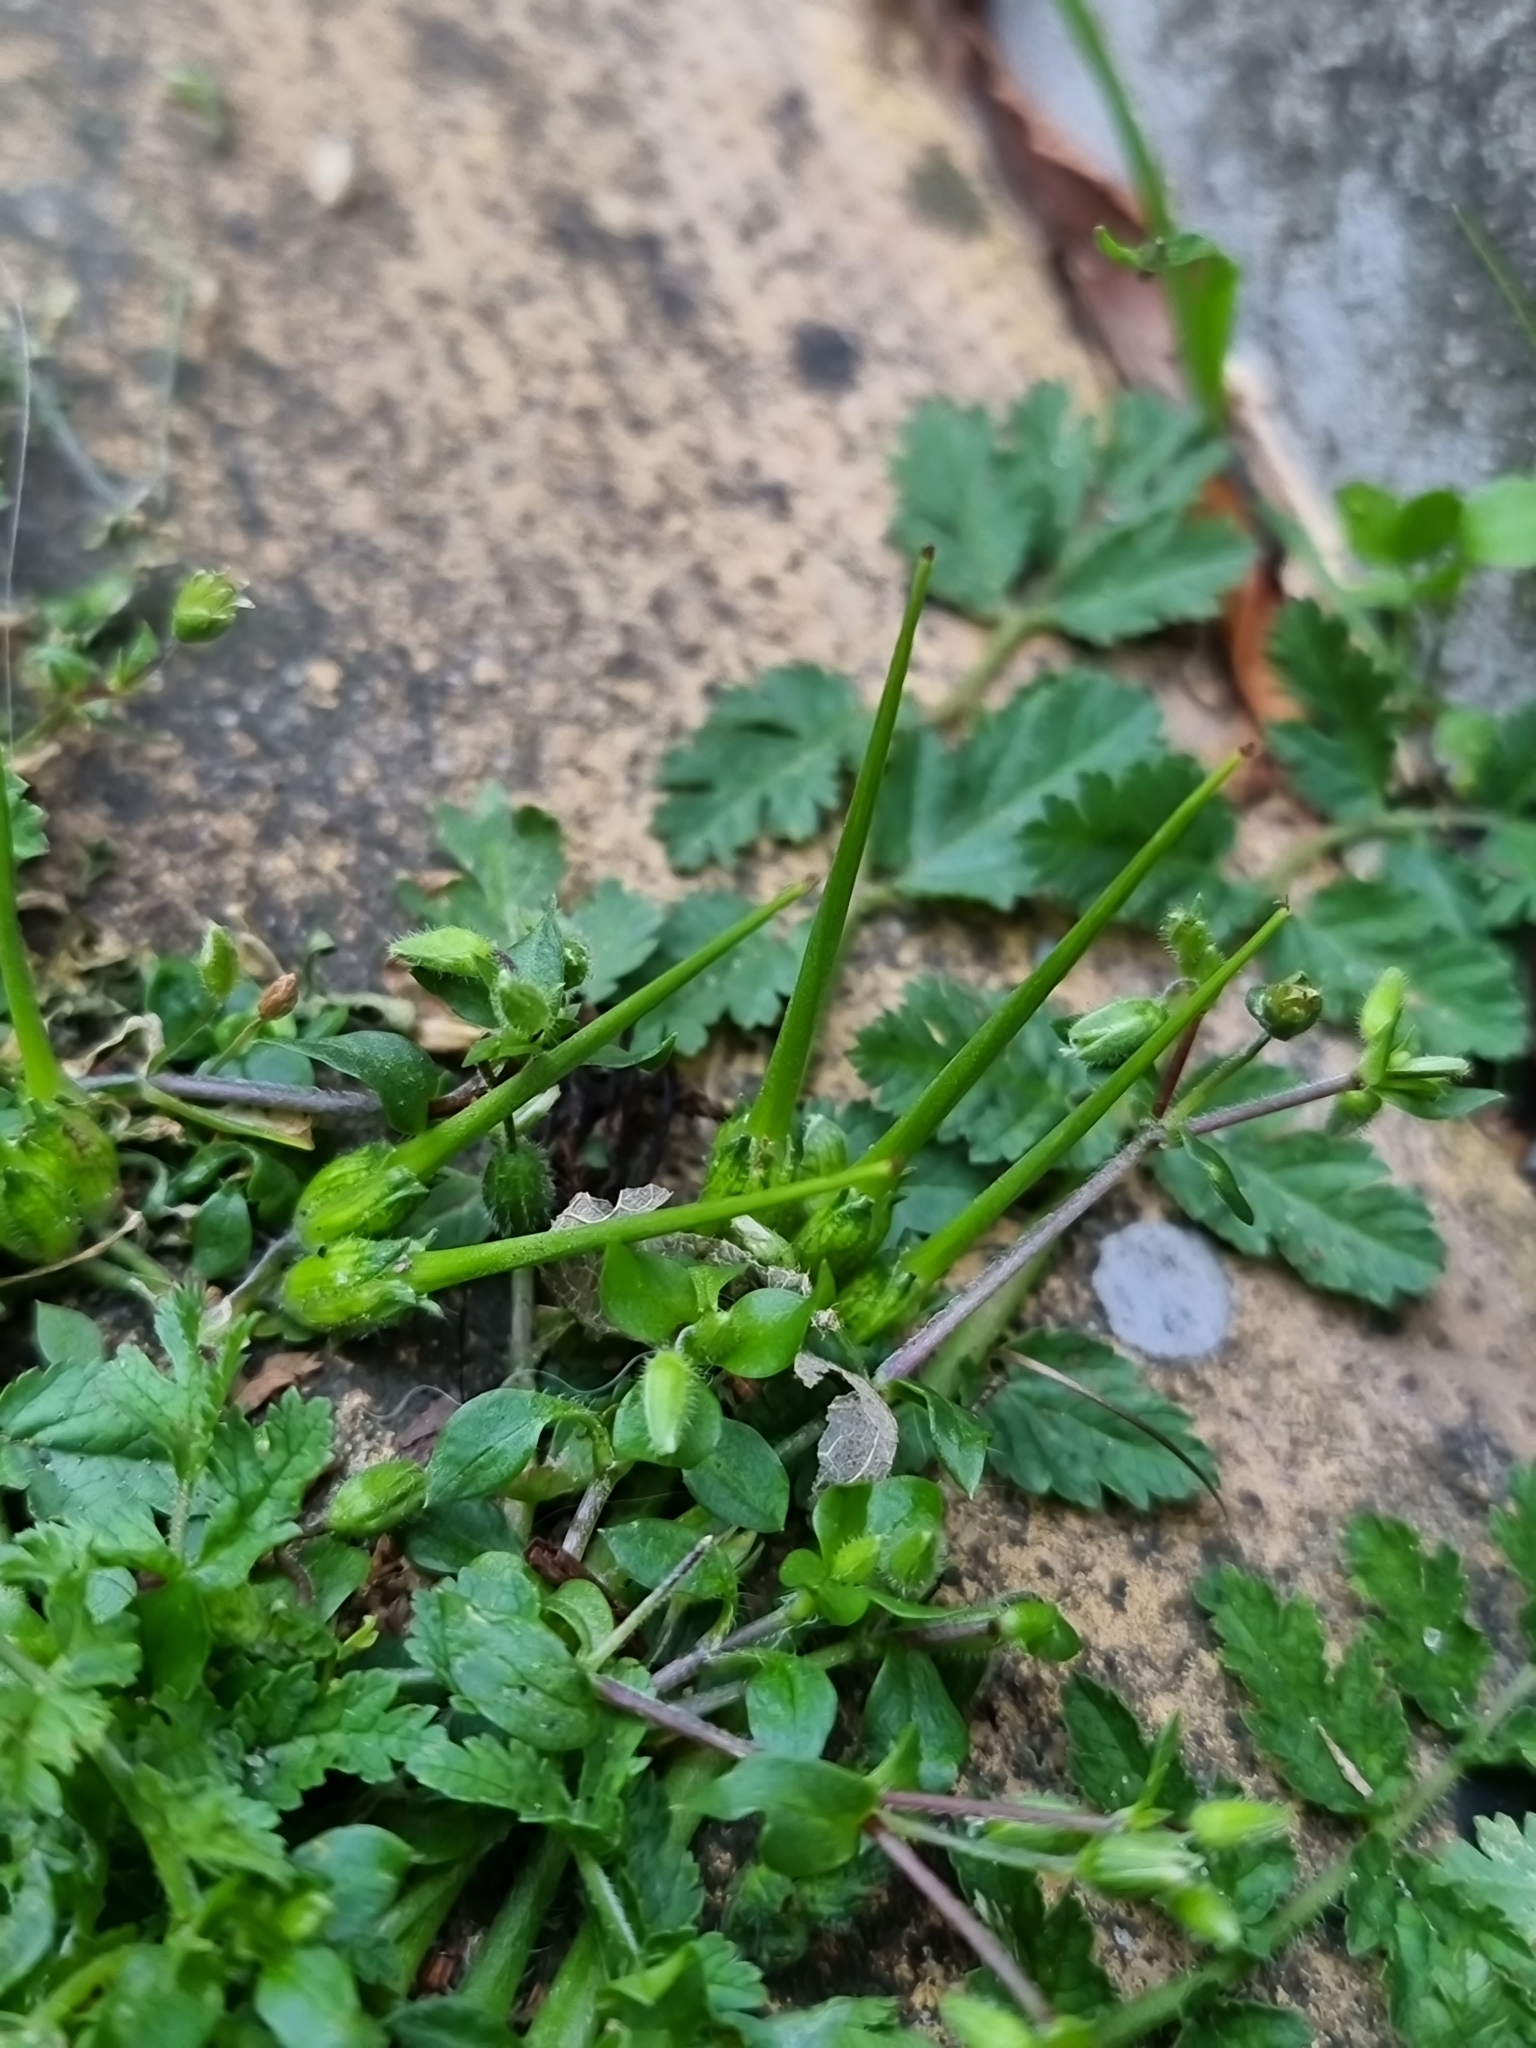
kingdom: Plantae
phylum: Tracheophyta
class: Magnoliopsida
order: Geraniales
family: Geraniaceae
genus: Erodium
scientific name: Erodium moschatum
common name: Musk stork's-bill
